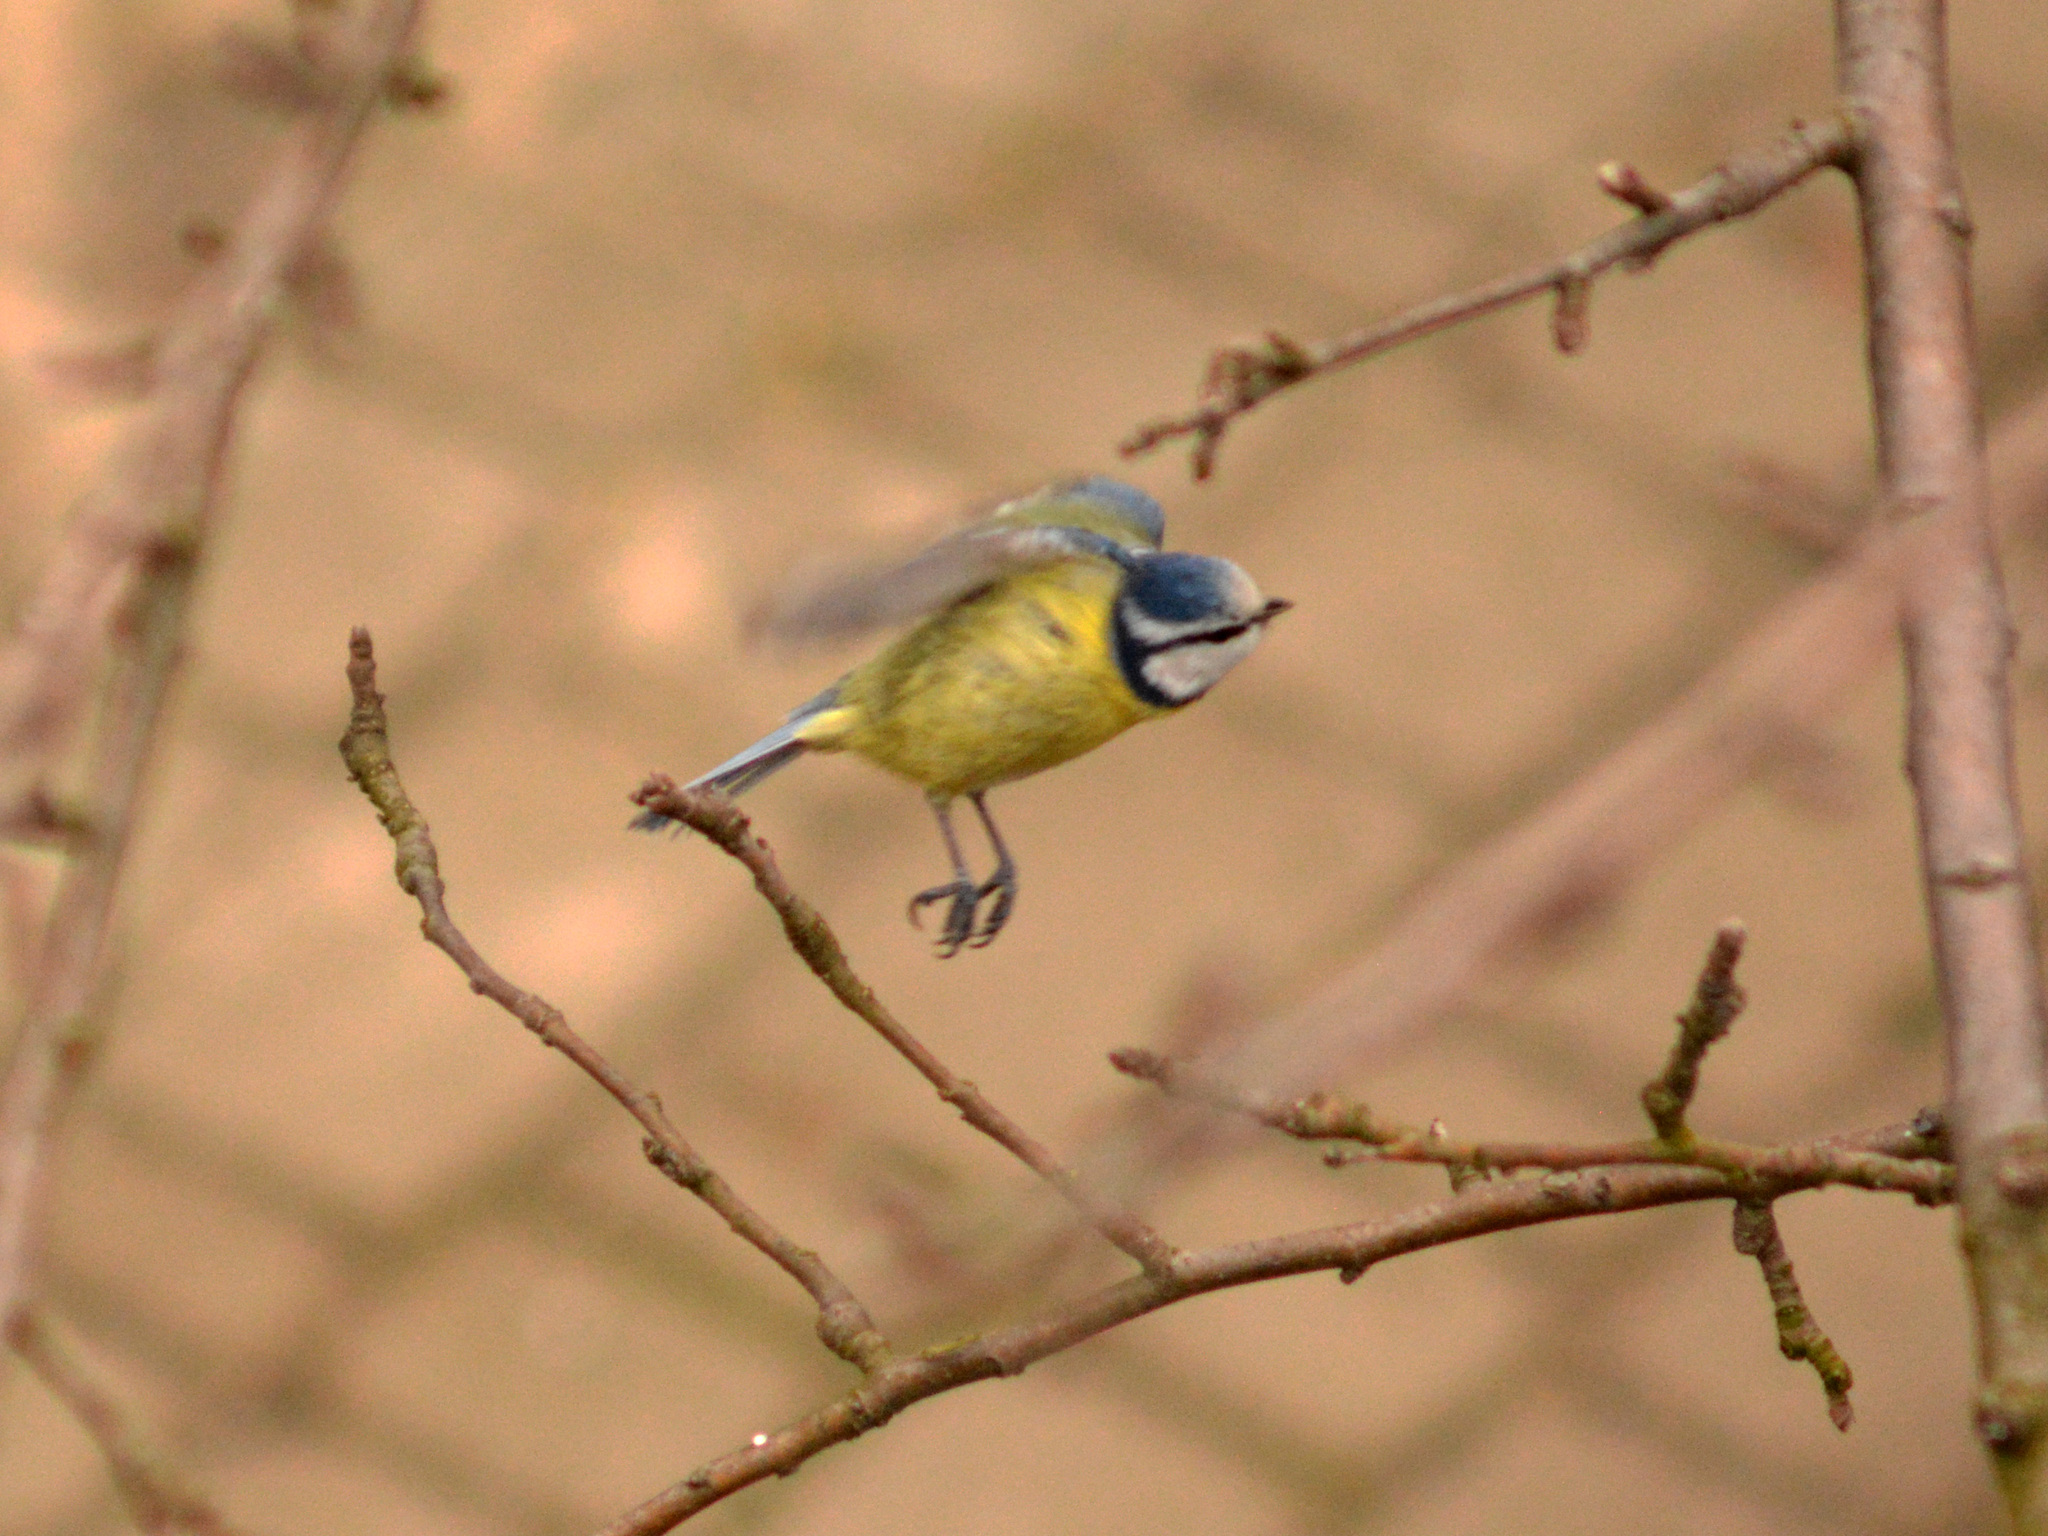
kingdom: Animalia
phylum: Chordata
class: Aves
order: Passeriformes
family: Paridae
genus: Cyanistes
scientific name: Cyanistes caeruleus
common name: Eurasian blue tit
